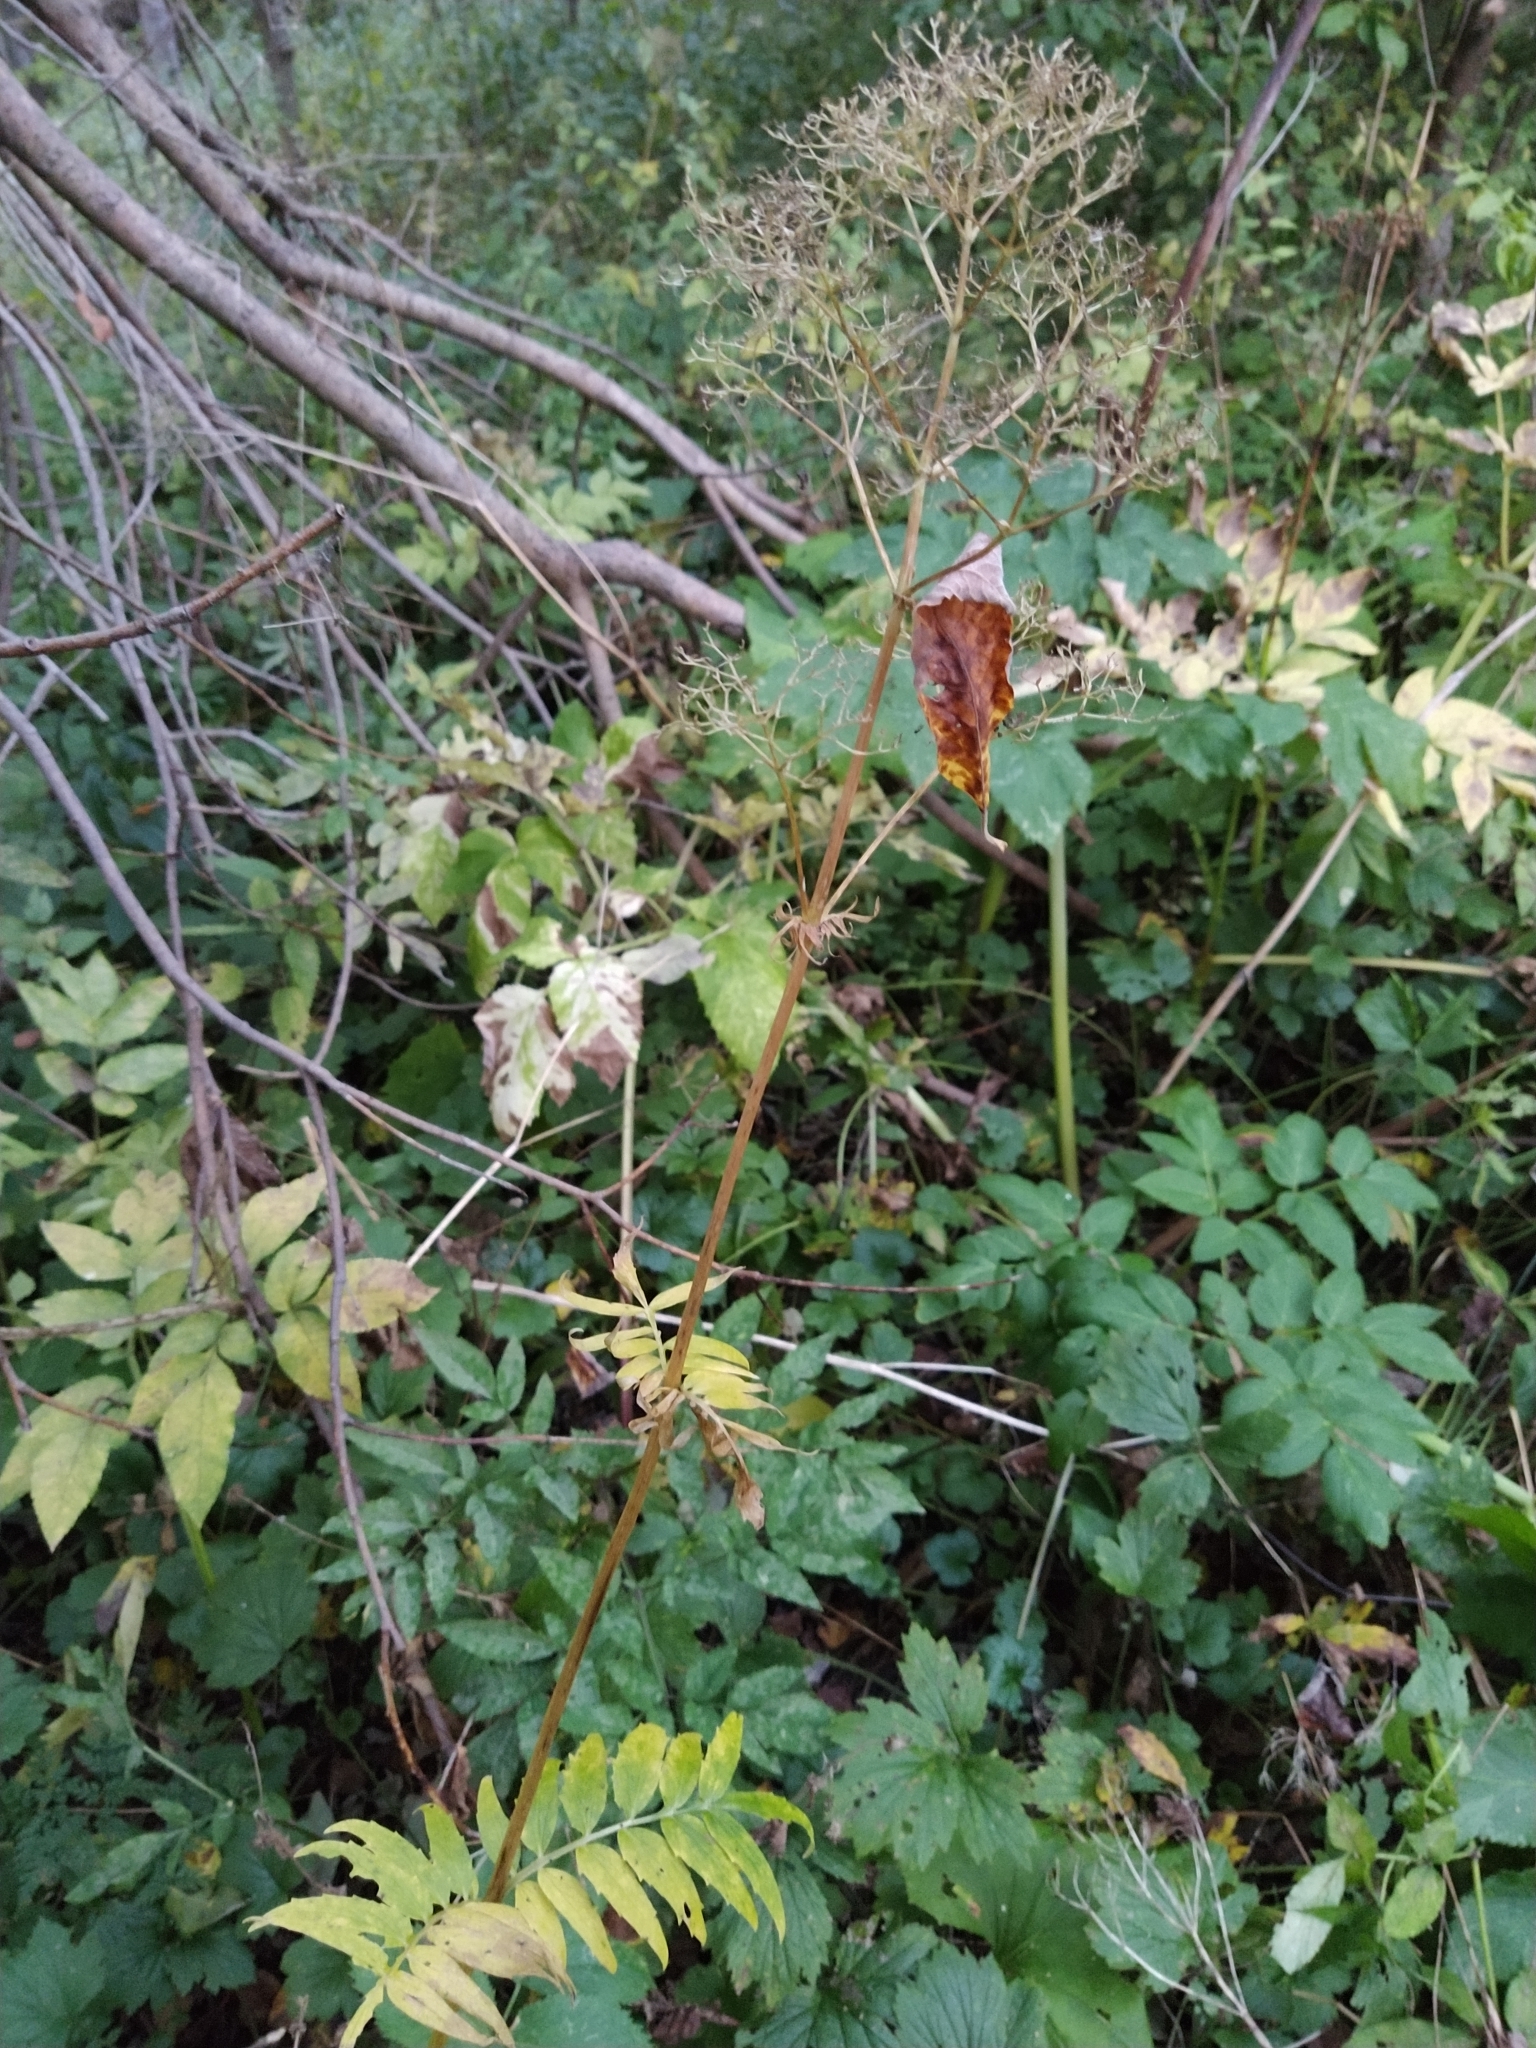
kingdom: Plantae
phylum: Tracheophyta
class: Magnoliopsida
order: Dipsacales
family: Caprifoliaceae
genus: Valeriana
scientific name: Valeriana officinalis
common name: Common valerian
